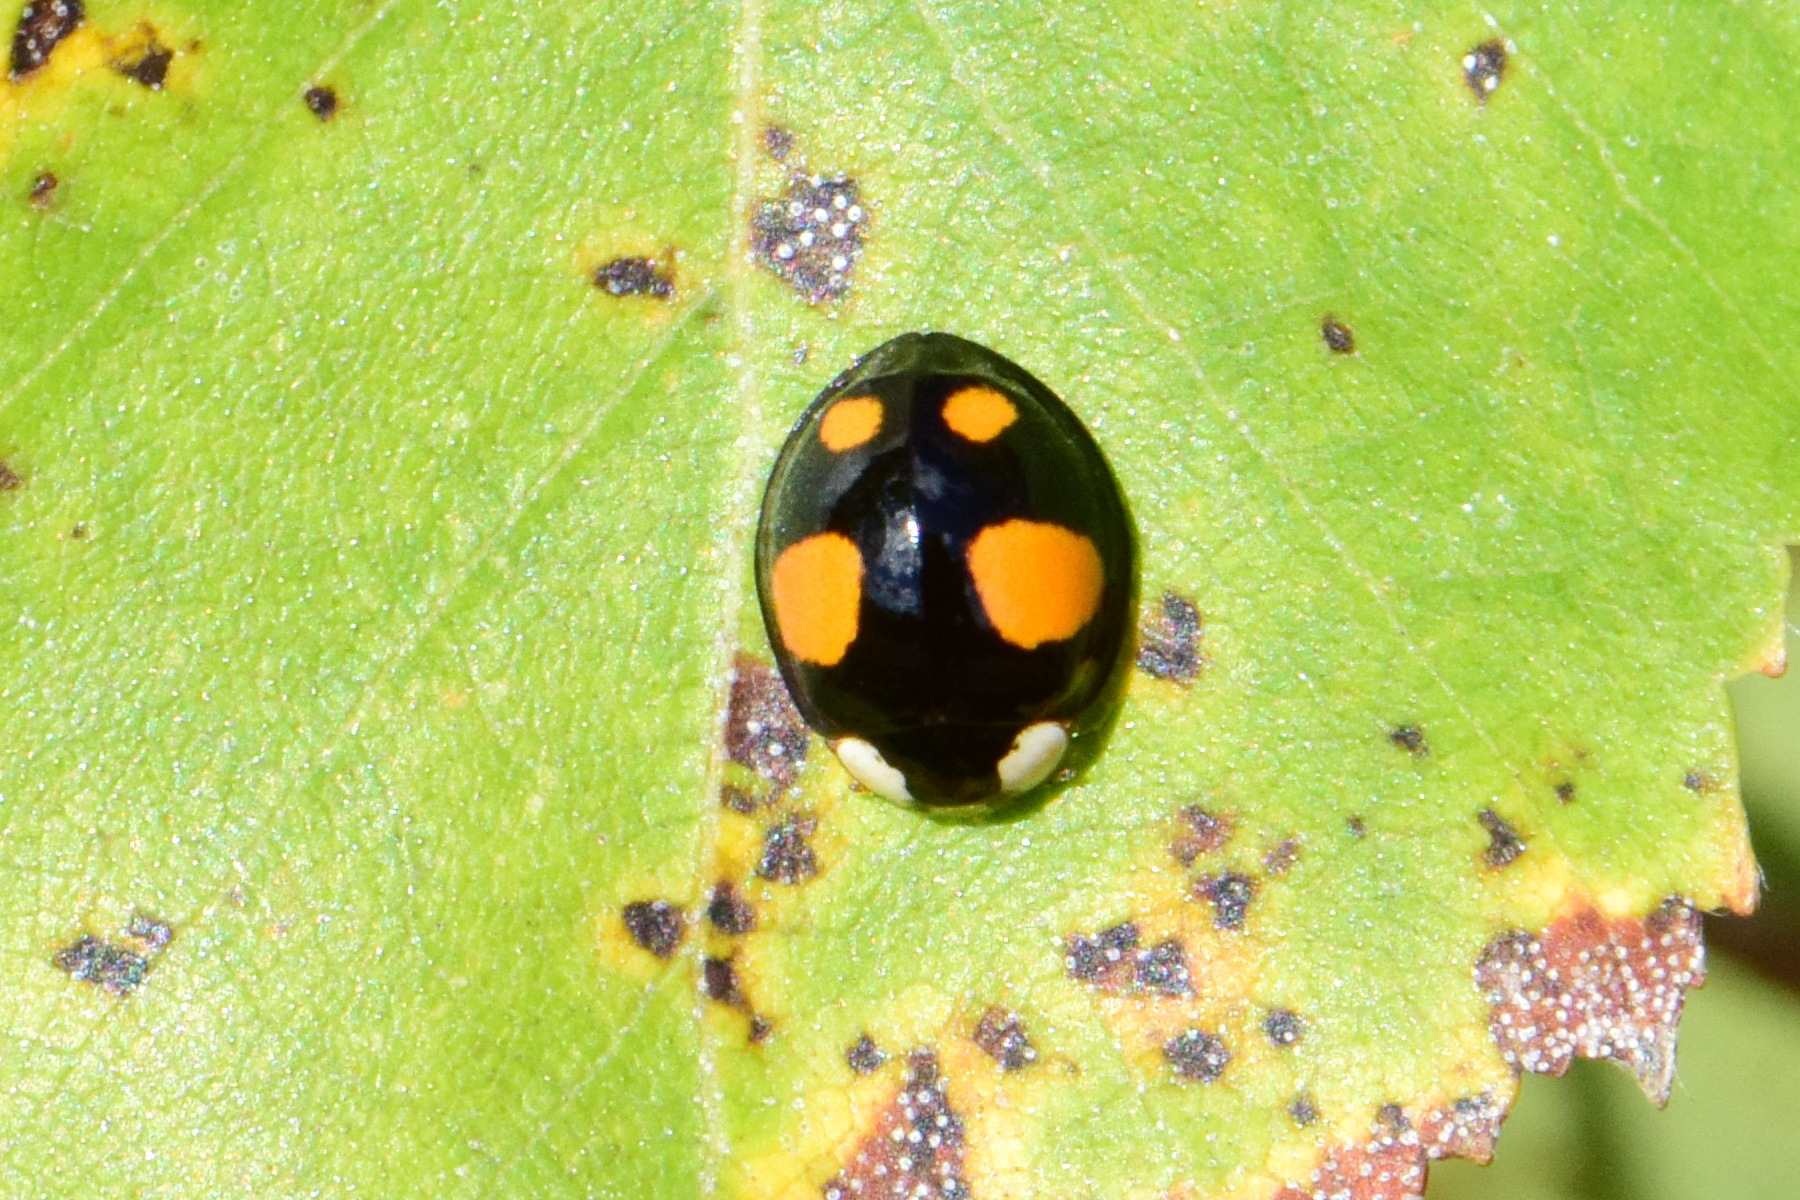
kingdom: Animalia
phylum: Arthropoda
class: Insecta
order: Coleoptera
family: Coccinellidae
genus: Harmonia
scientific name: Harmonia axyridis
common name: Harlequin ladybird
